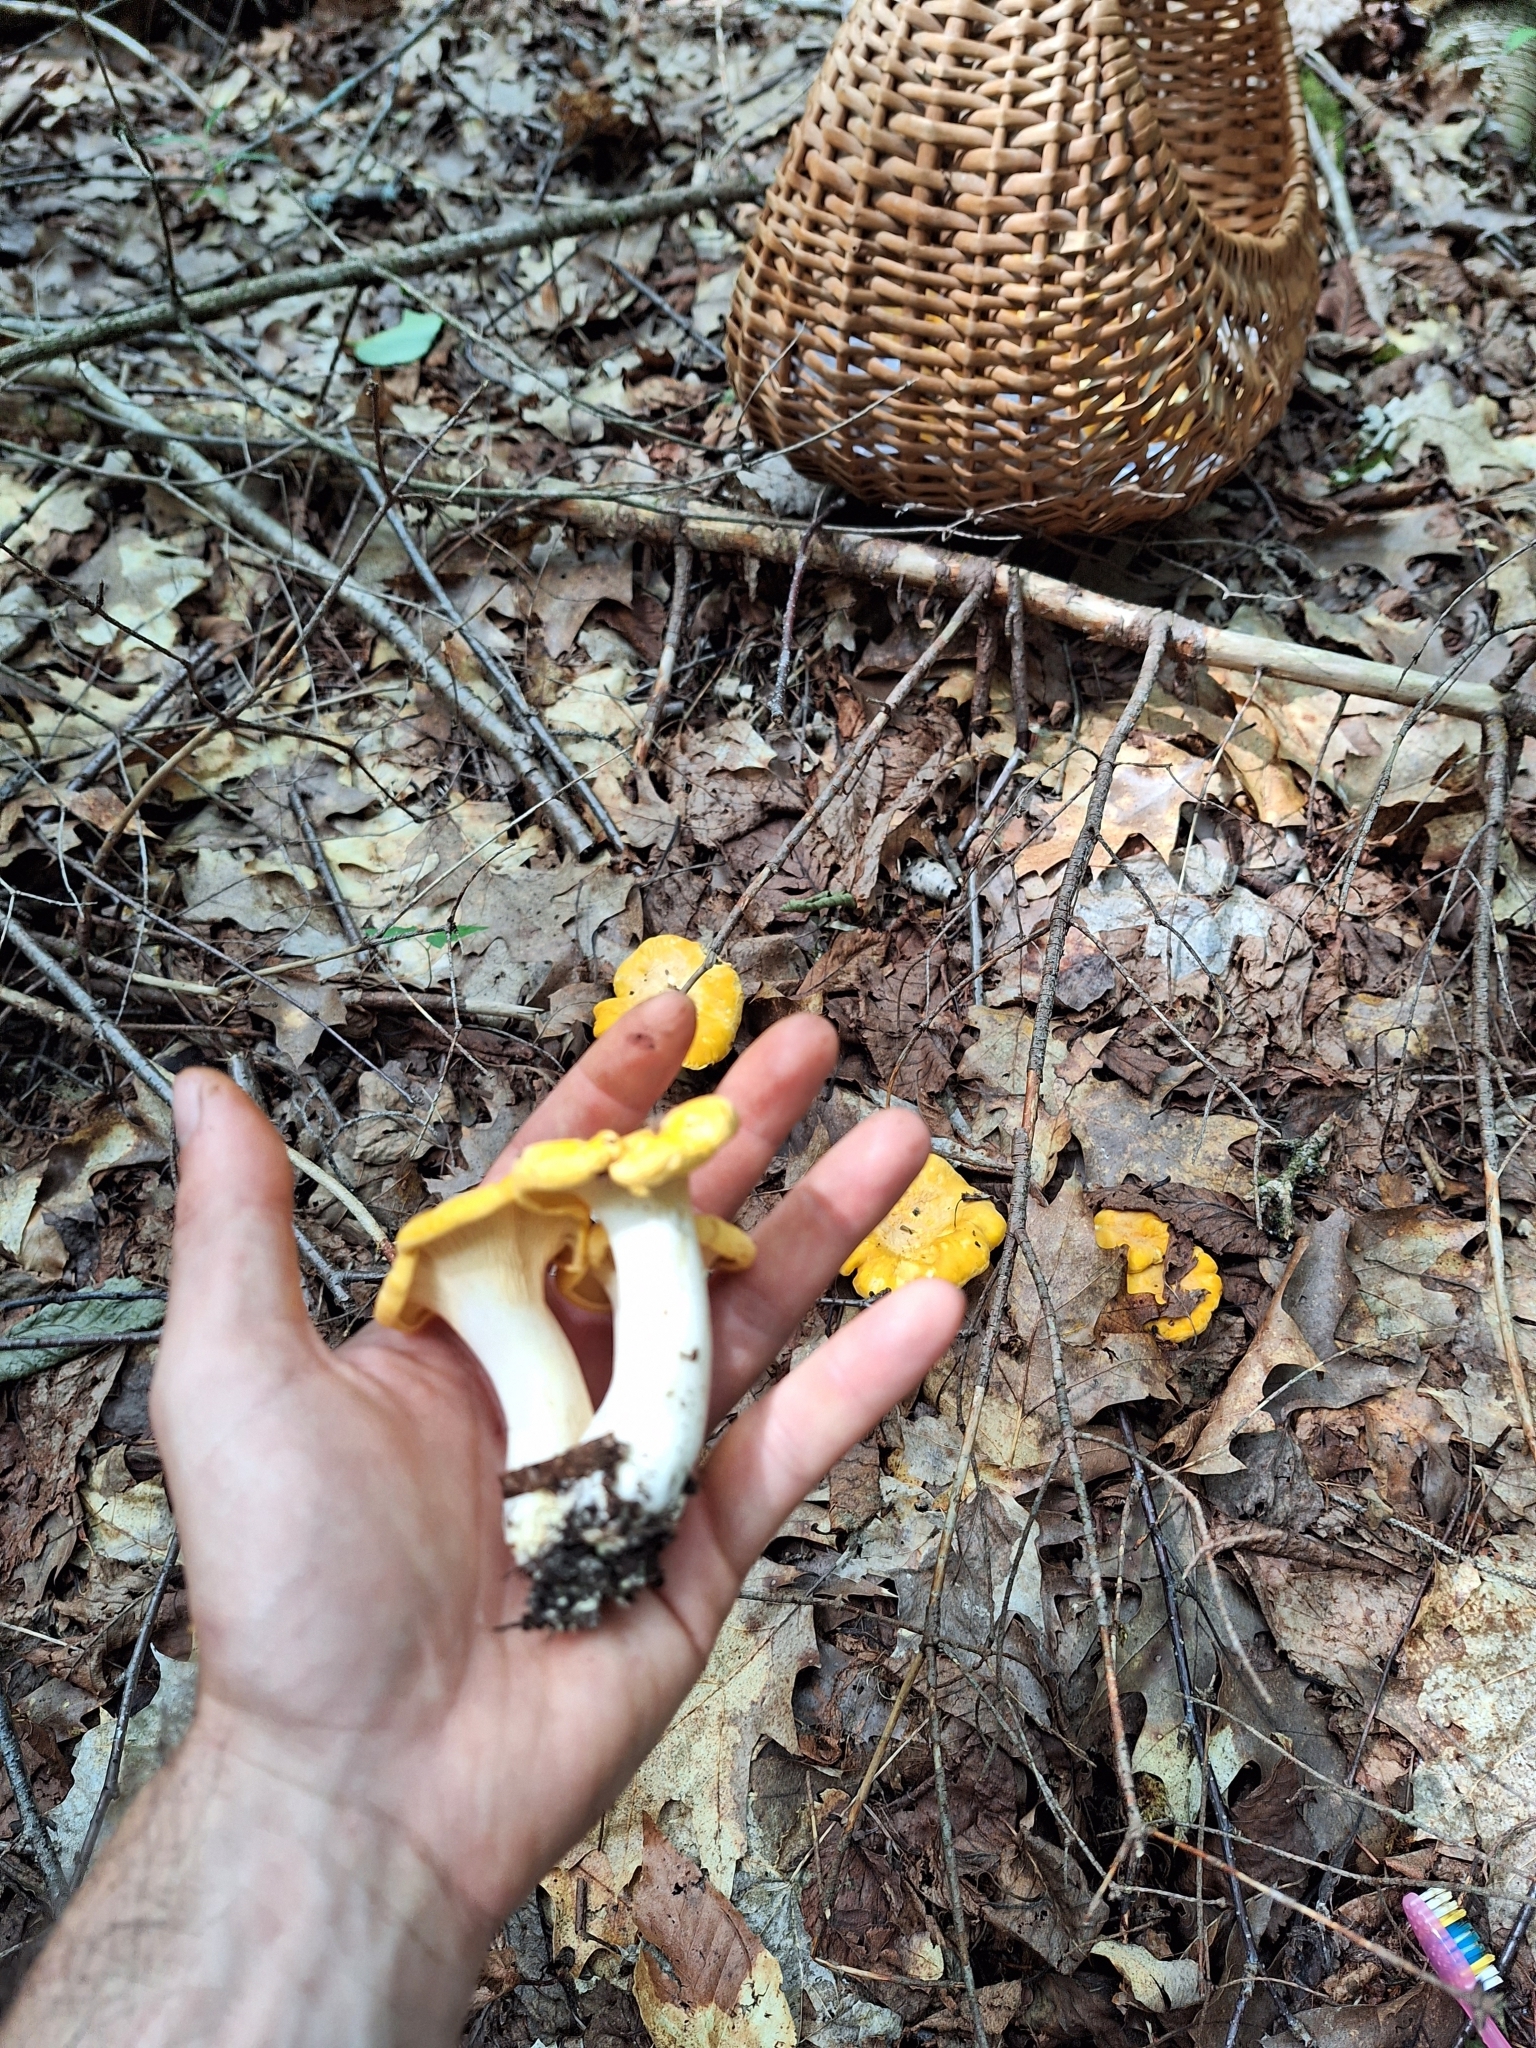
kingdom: Fungi
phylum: Basidiomycota
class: Agaricomycetes
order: Cantharellales
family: Hydnaceae
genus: Cantharellus
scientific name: Cantharellus phasmatis
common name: Ghost chanterelle
